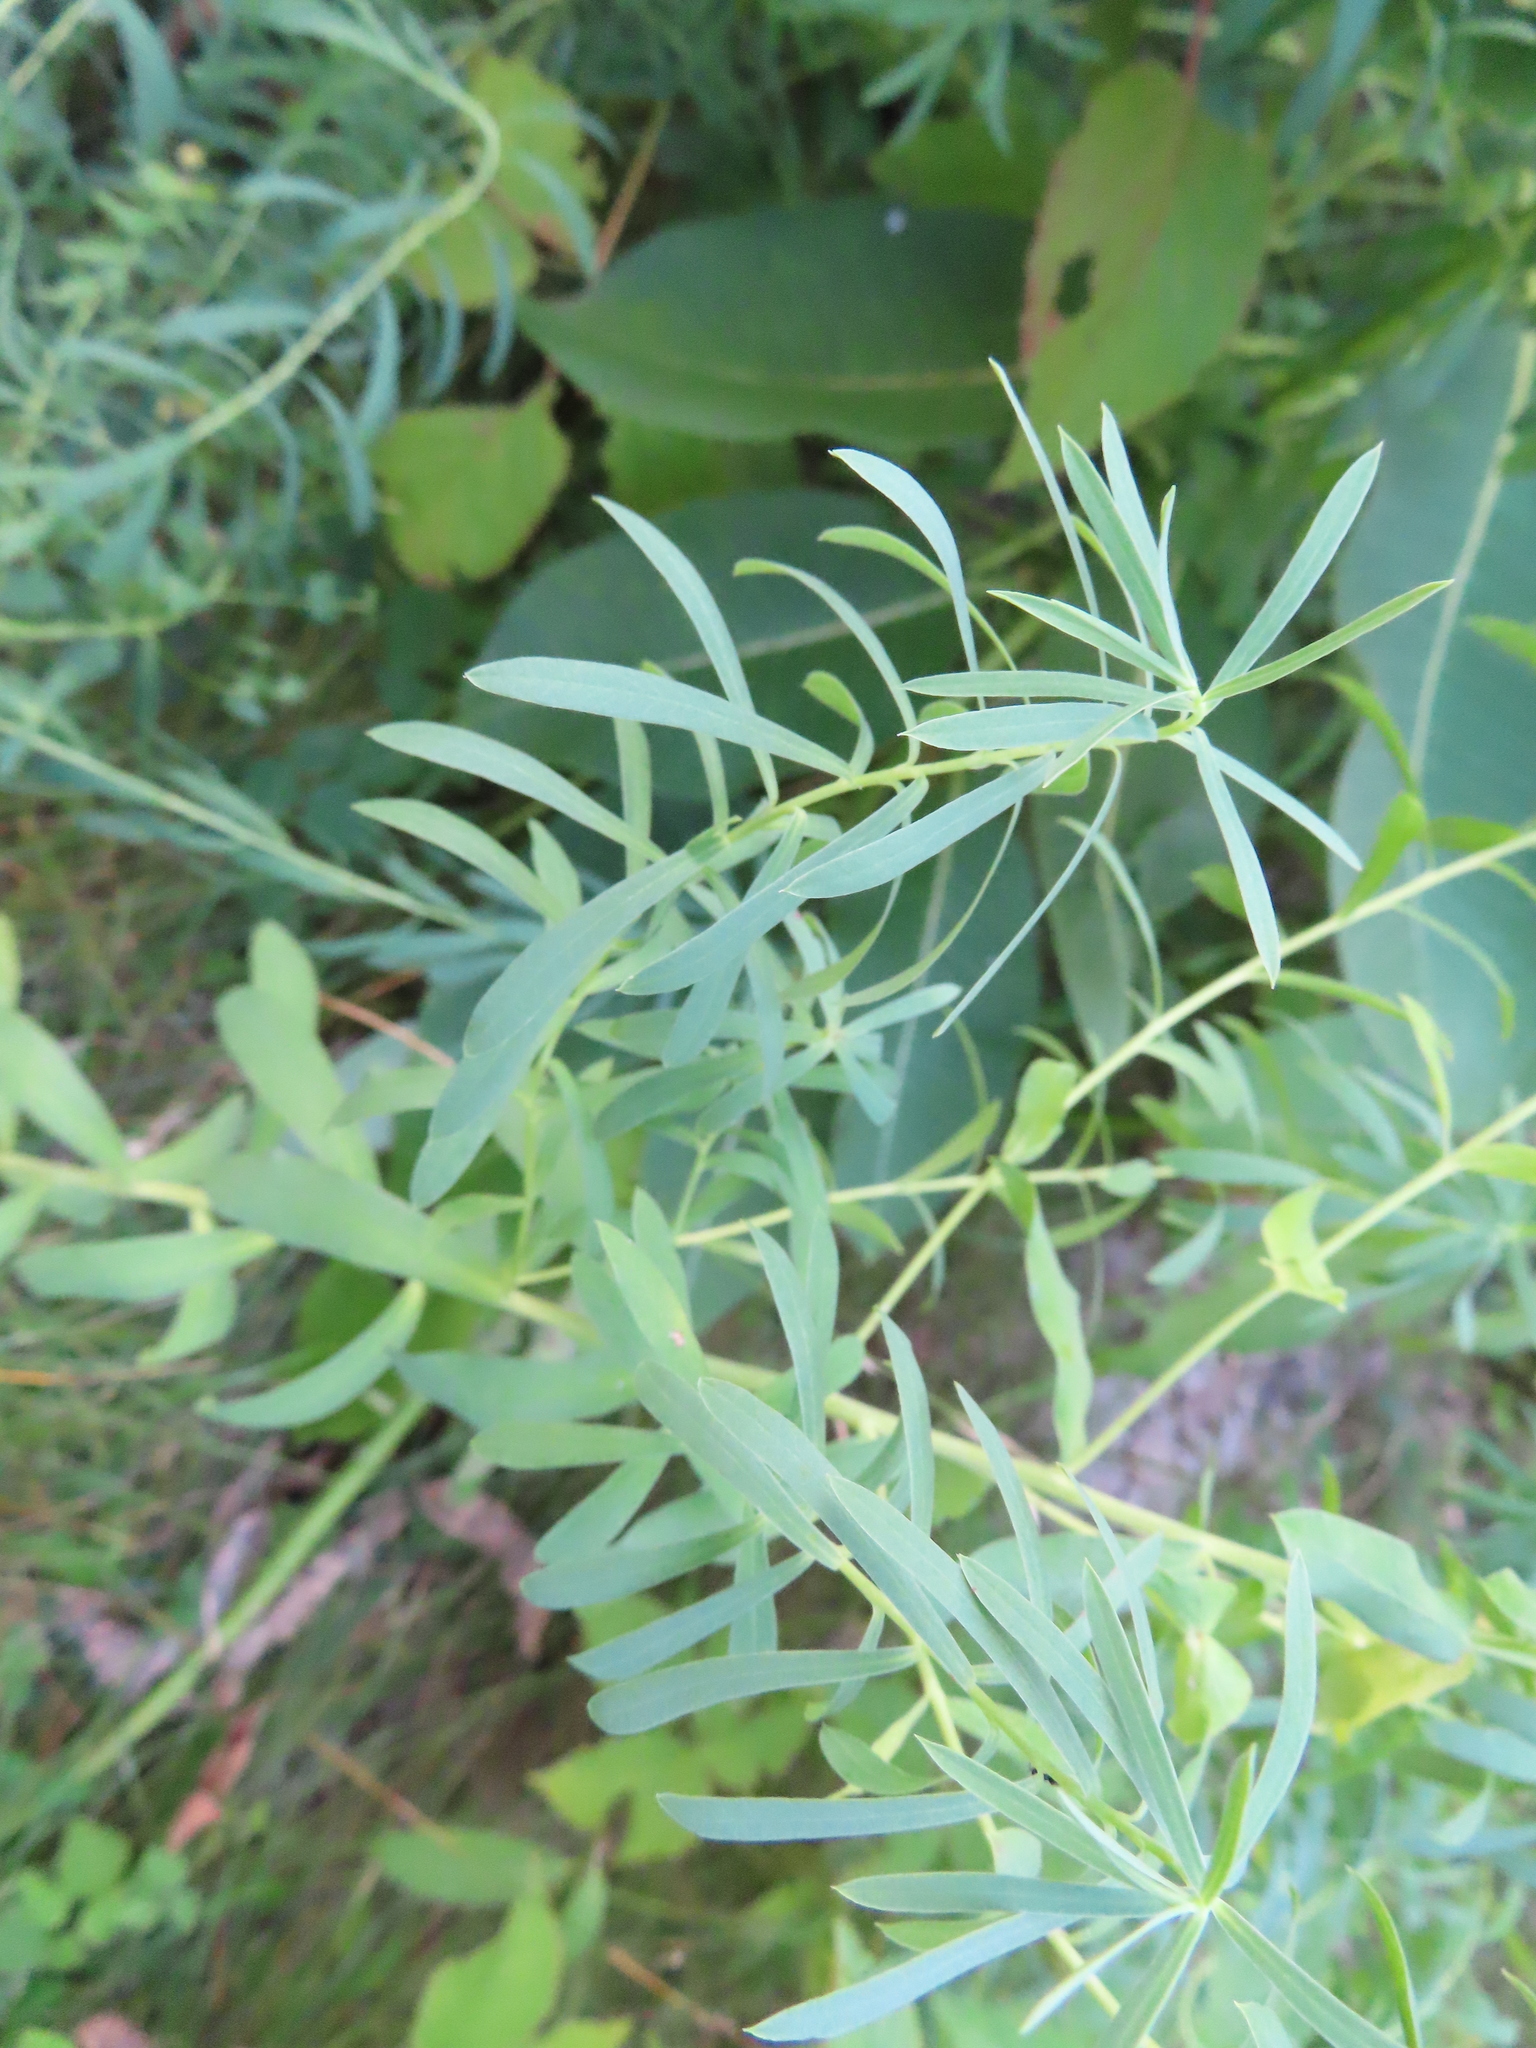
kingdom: Plantae
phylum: Tracheophyta
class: Magnoliopsida
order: Malpighiales
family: Euphorbiaceae
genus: Euphorbia
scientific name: Euphorbia virgata
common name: Leafy spurge
